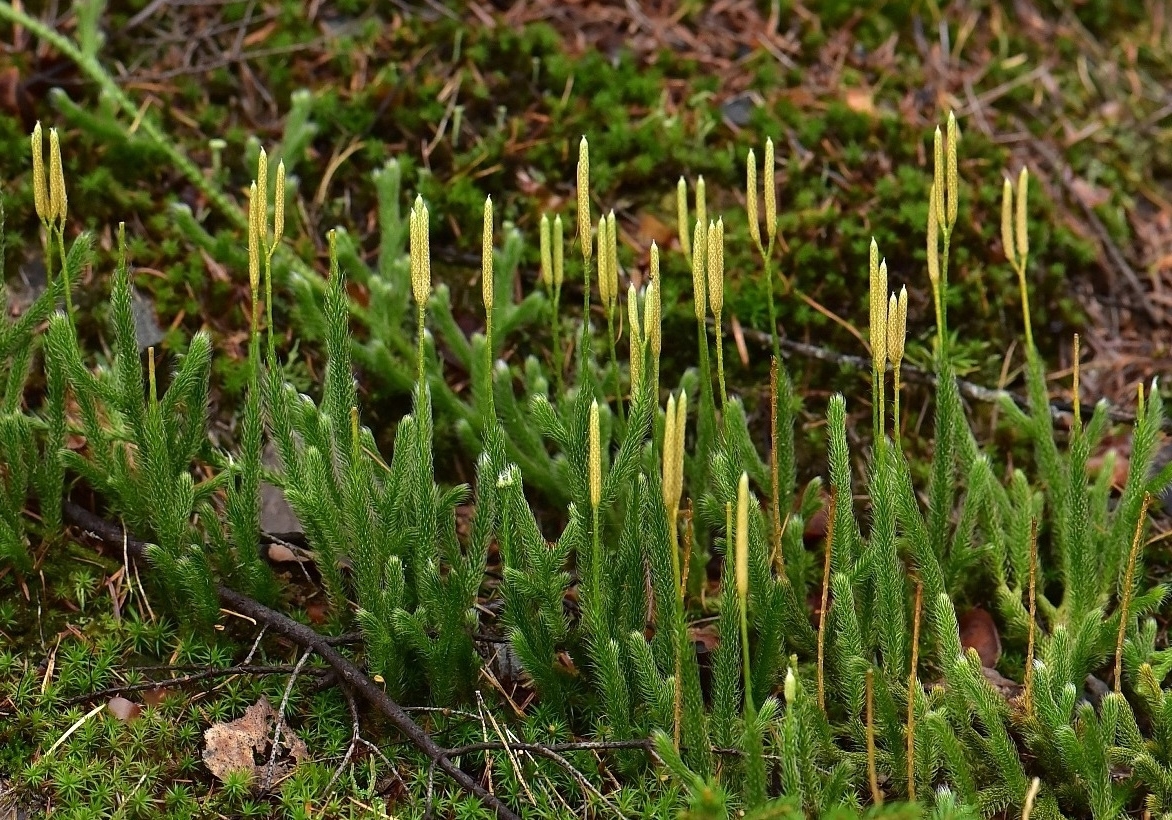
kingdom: Plantae
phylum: Tracheophyta
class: Lycopodiopsida
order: Lycopodiales
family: Lycopodiaceae
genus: Lycopodium
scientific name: Lycopodium clavatum
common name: Stag's-horn clubmoss
